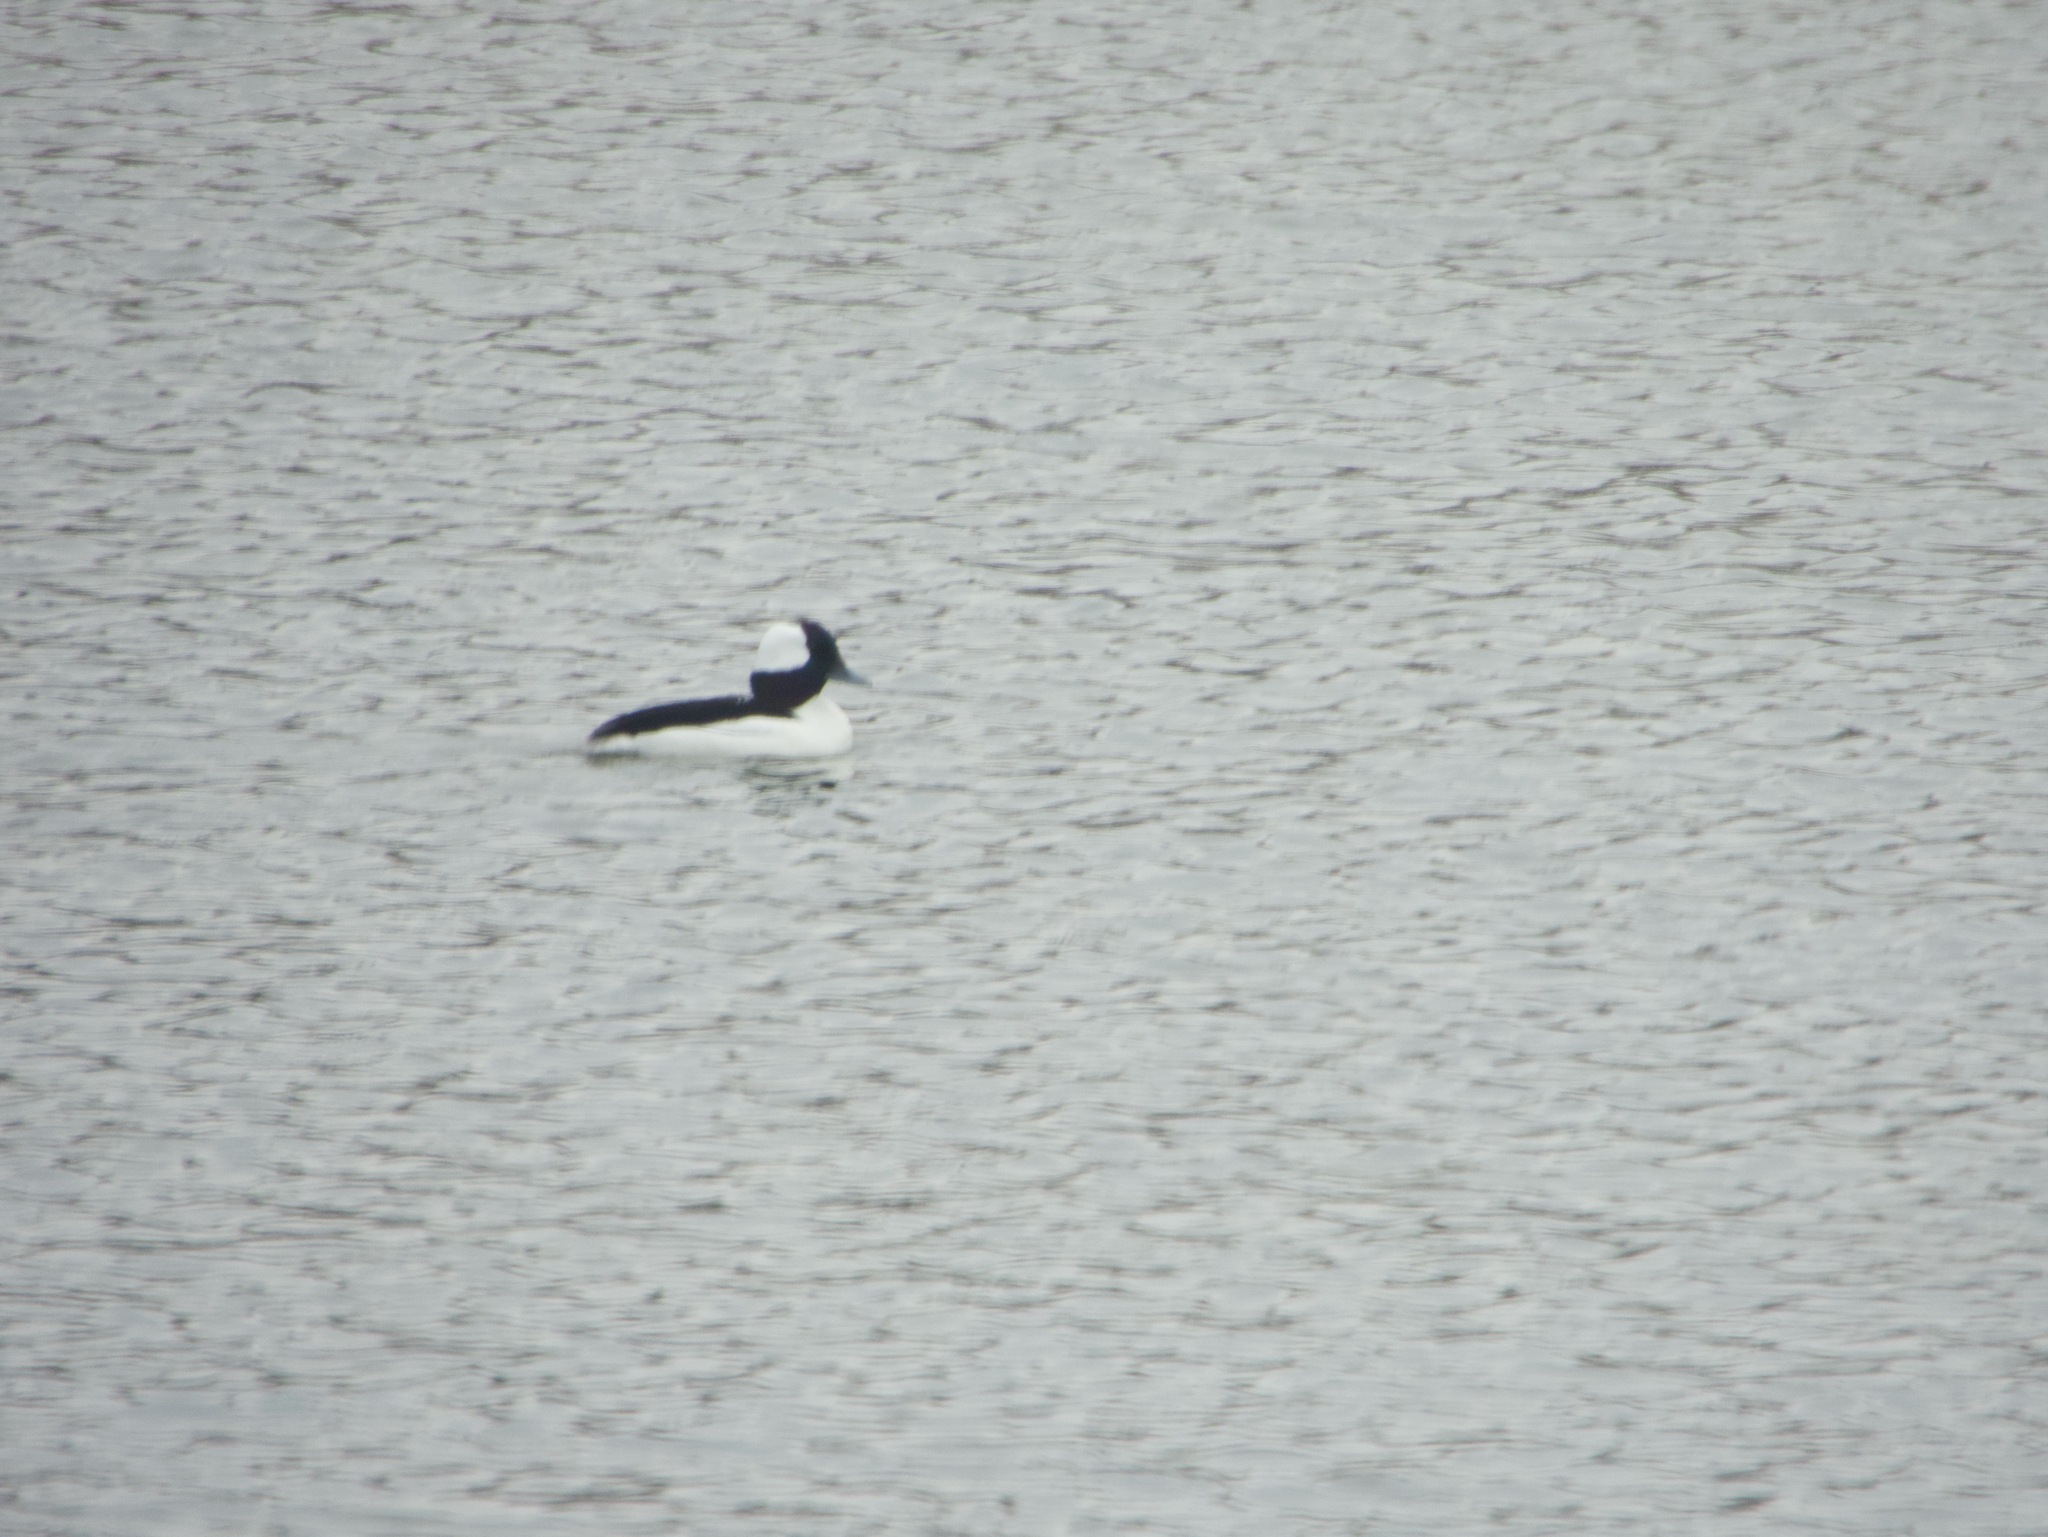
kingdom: Animalia
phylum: Chordata
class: Aves
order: Anseriformes
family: Anatidae
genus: Bucephala
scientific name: Bucephala albeola
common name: Bufflehead
